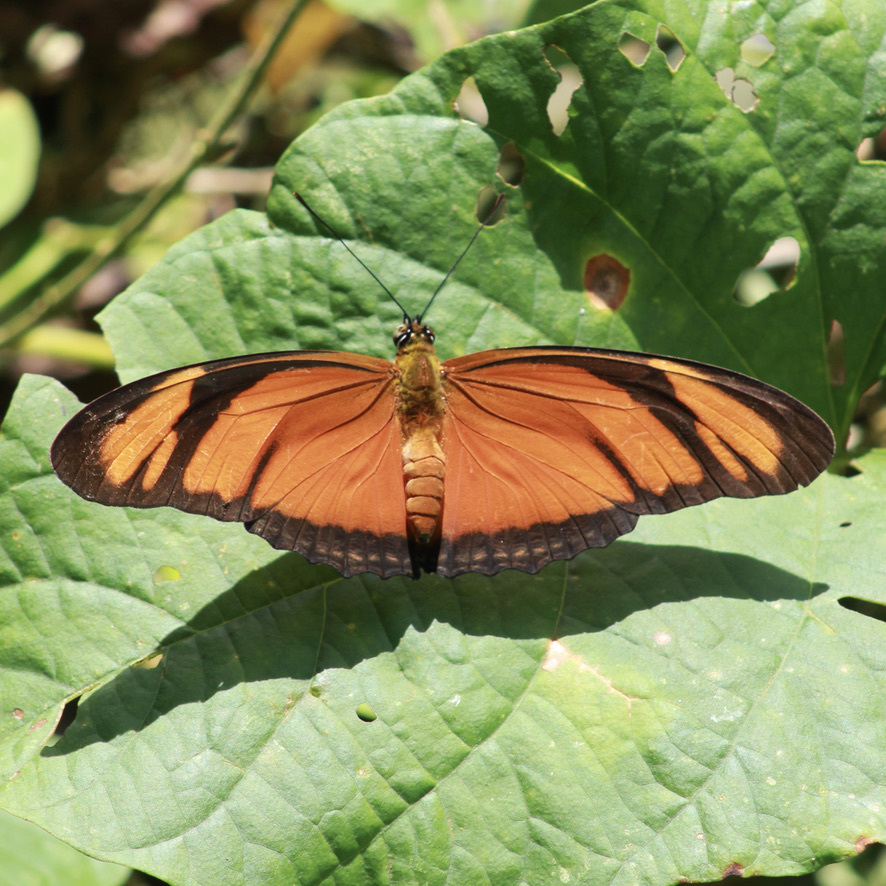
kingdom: Animalia
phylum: Arthropoda
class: Insecta
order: Lepidoptera
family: Nymphalidae
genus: Dryas
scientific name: Dryas iulia
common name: Flambeau
